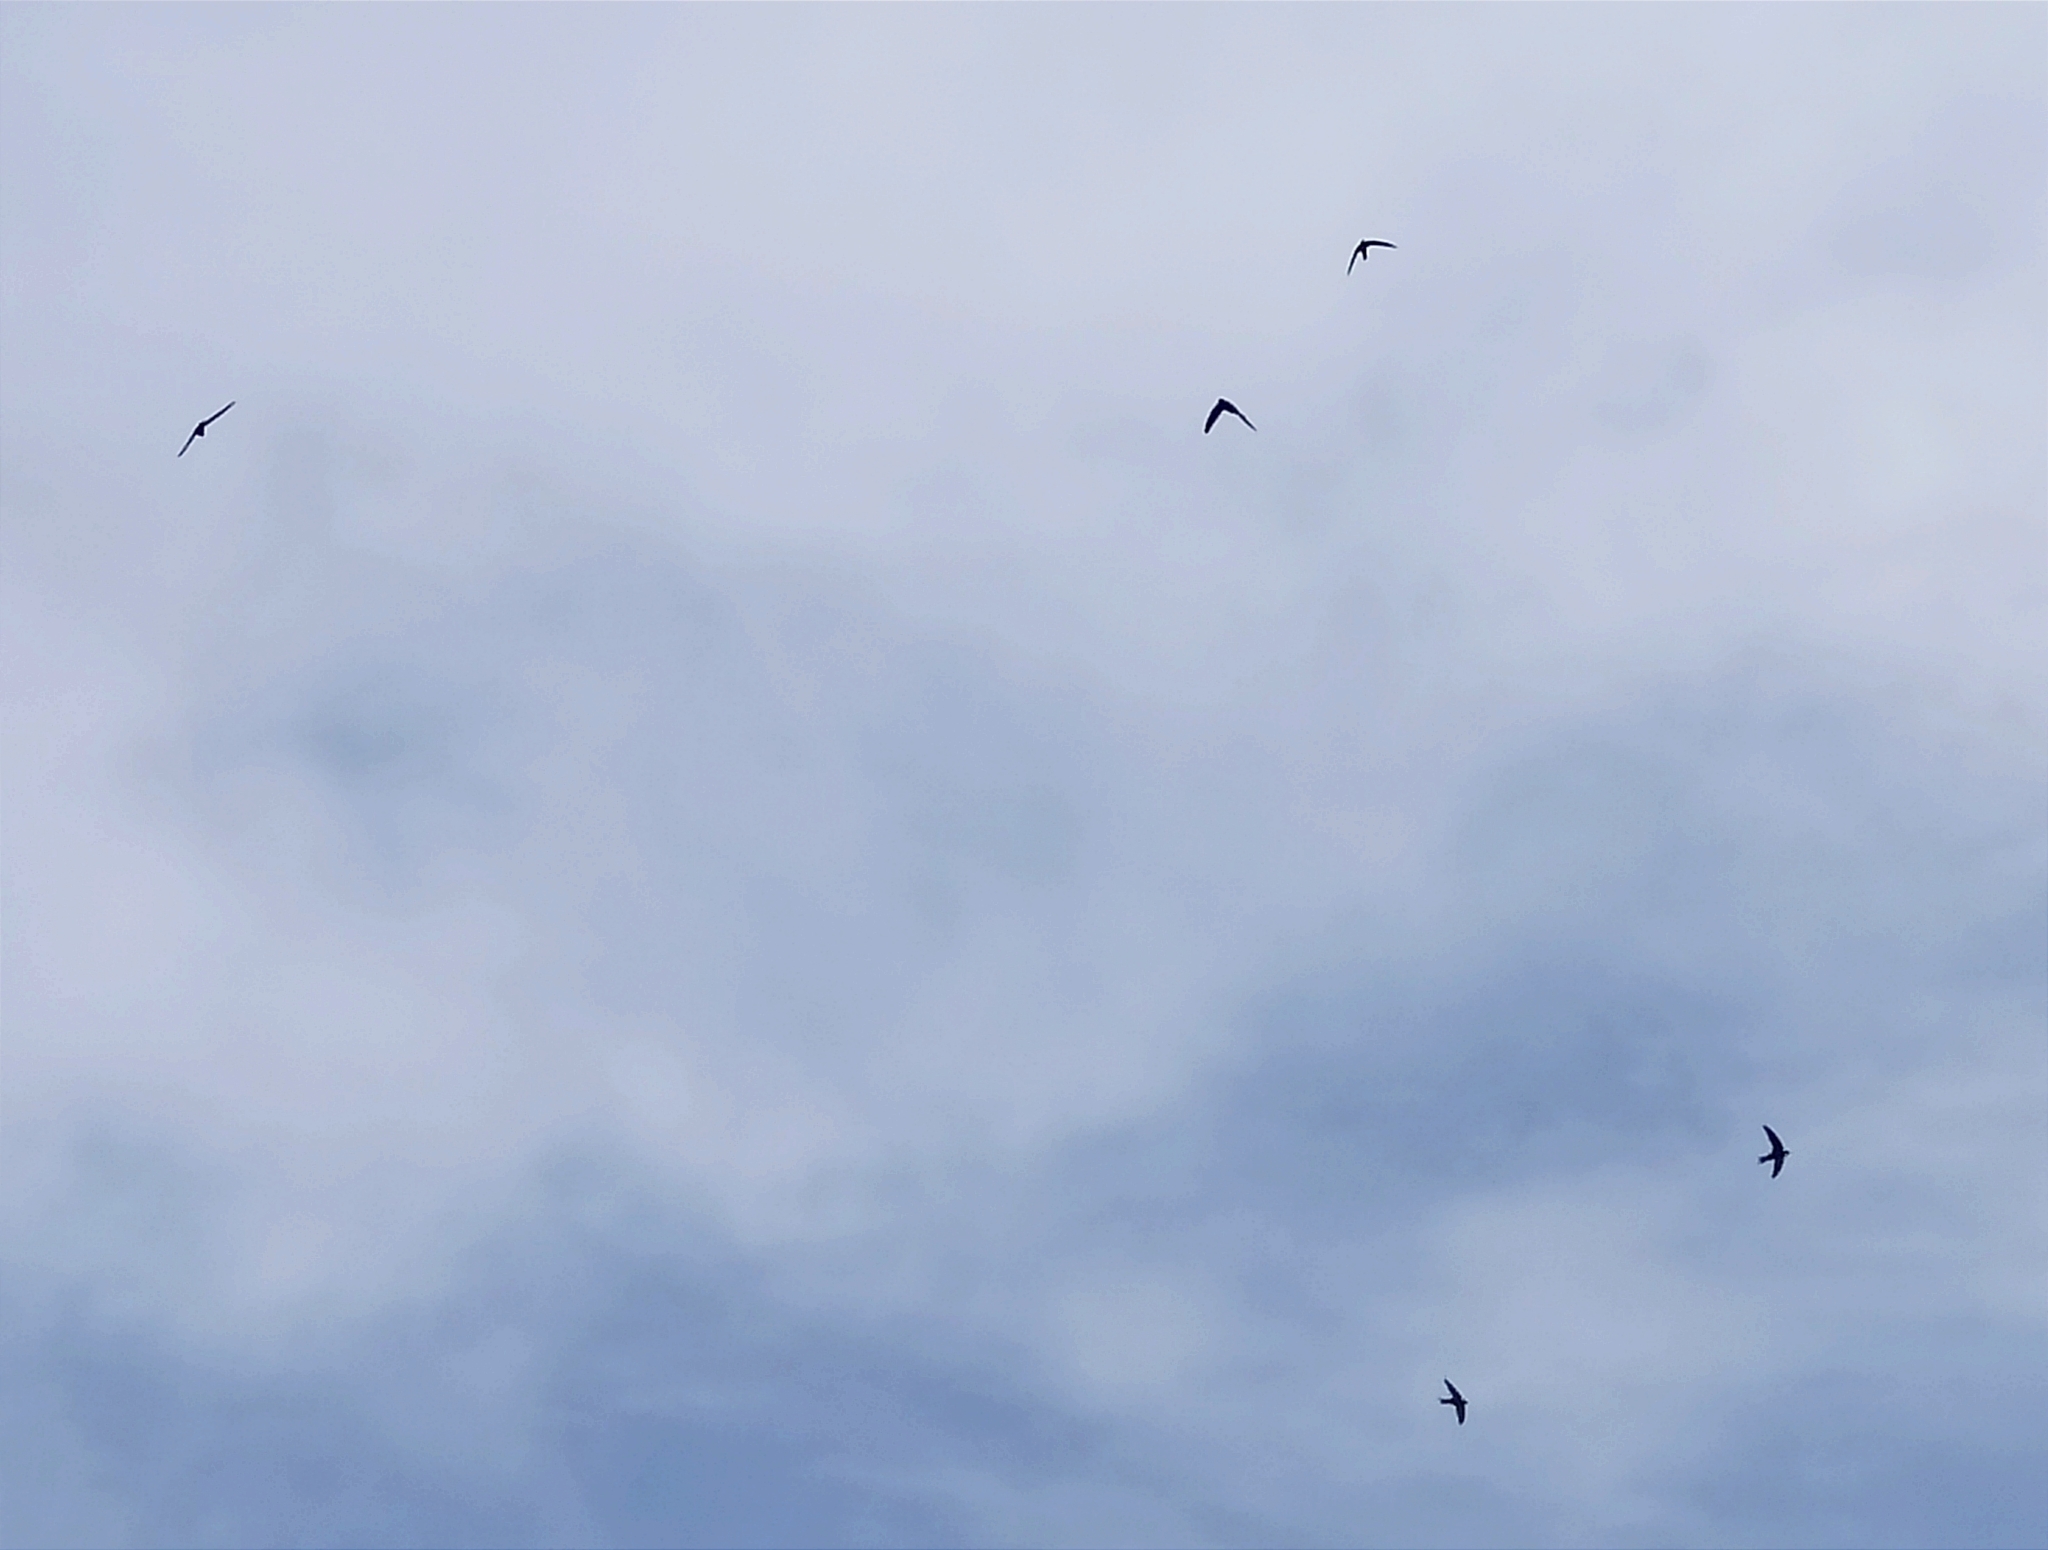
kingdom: Animalia
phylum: Chordata
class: Aves
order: Apodiformes
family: Apodidae
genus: Apus
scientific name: Apus apus
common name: Common swift
